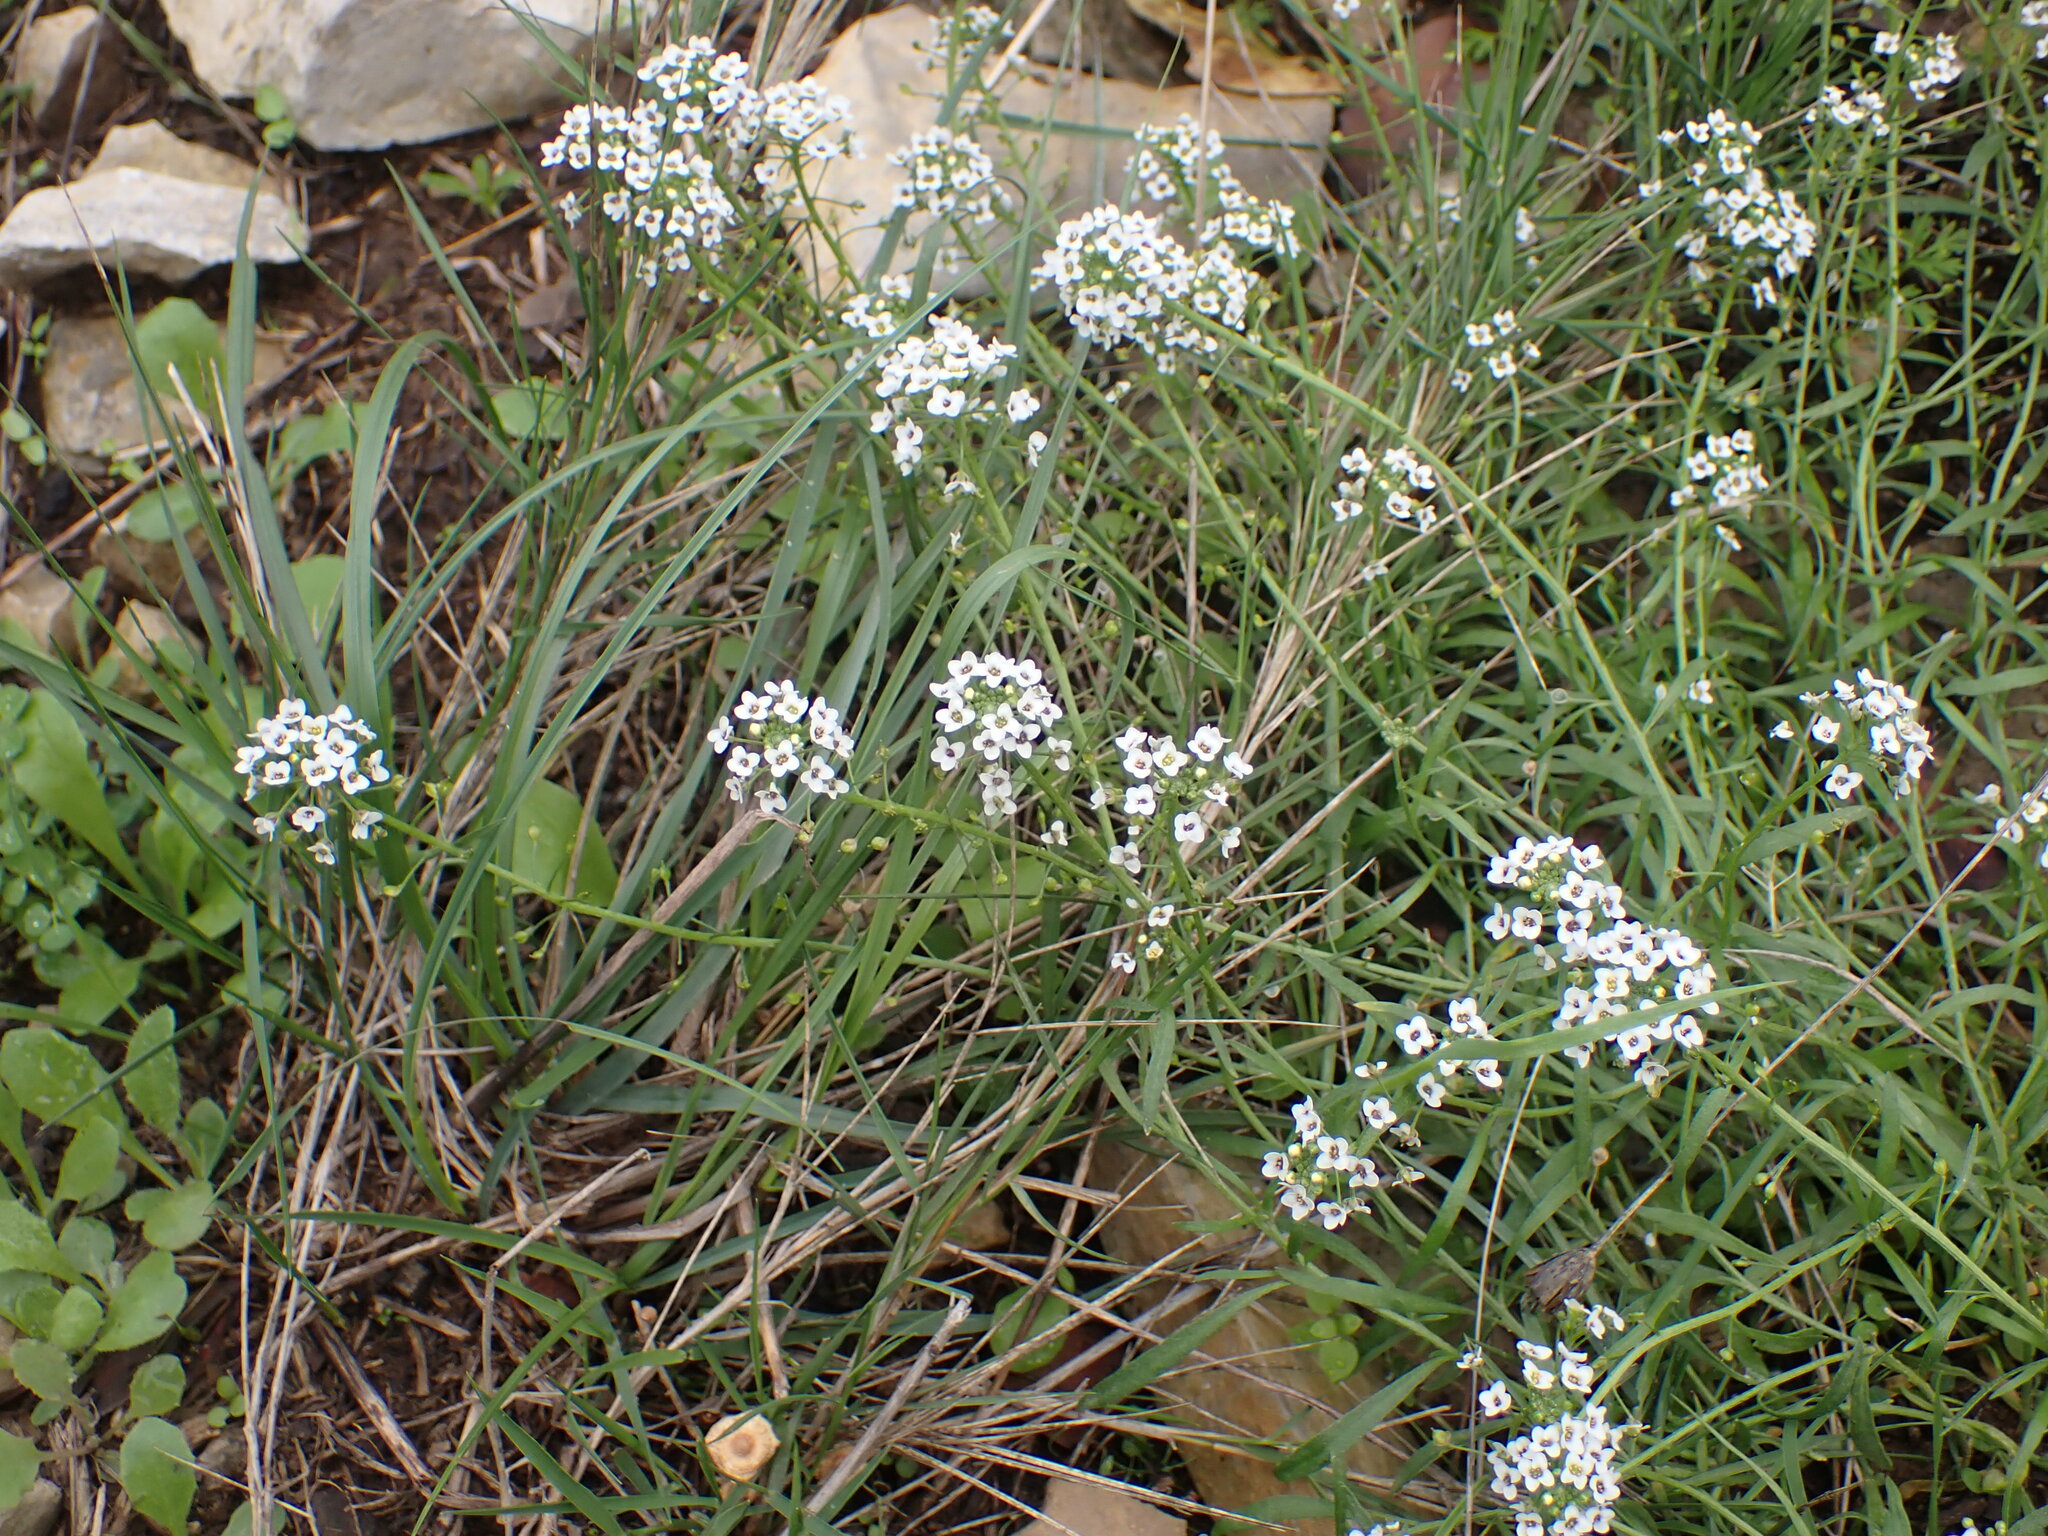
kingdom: Plantae
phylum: Tracheophyta
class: Magnoliopsida
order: Brassicales
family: Brassicaceae
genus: Lobularia
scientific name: Lobularia maritima
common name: Sweet alison
